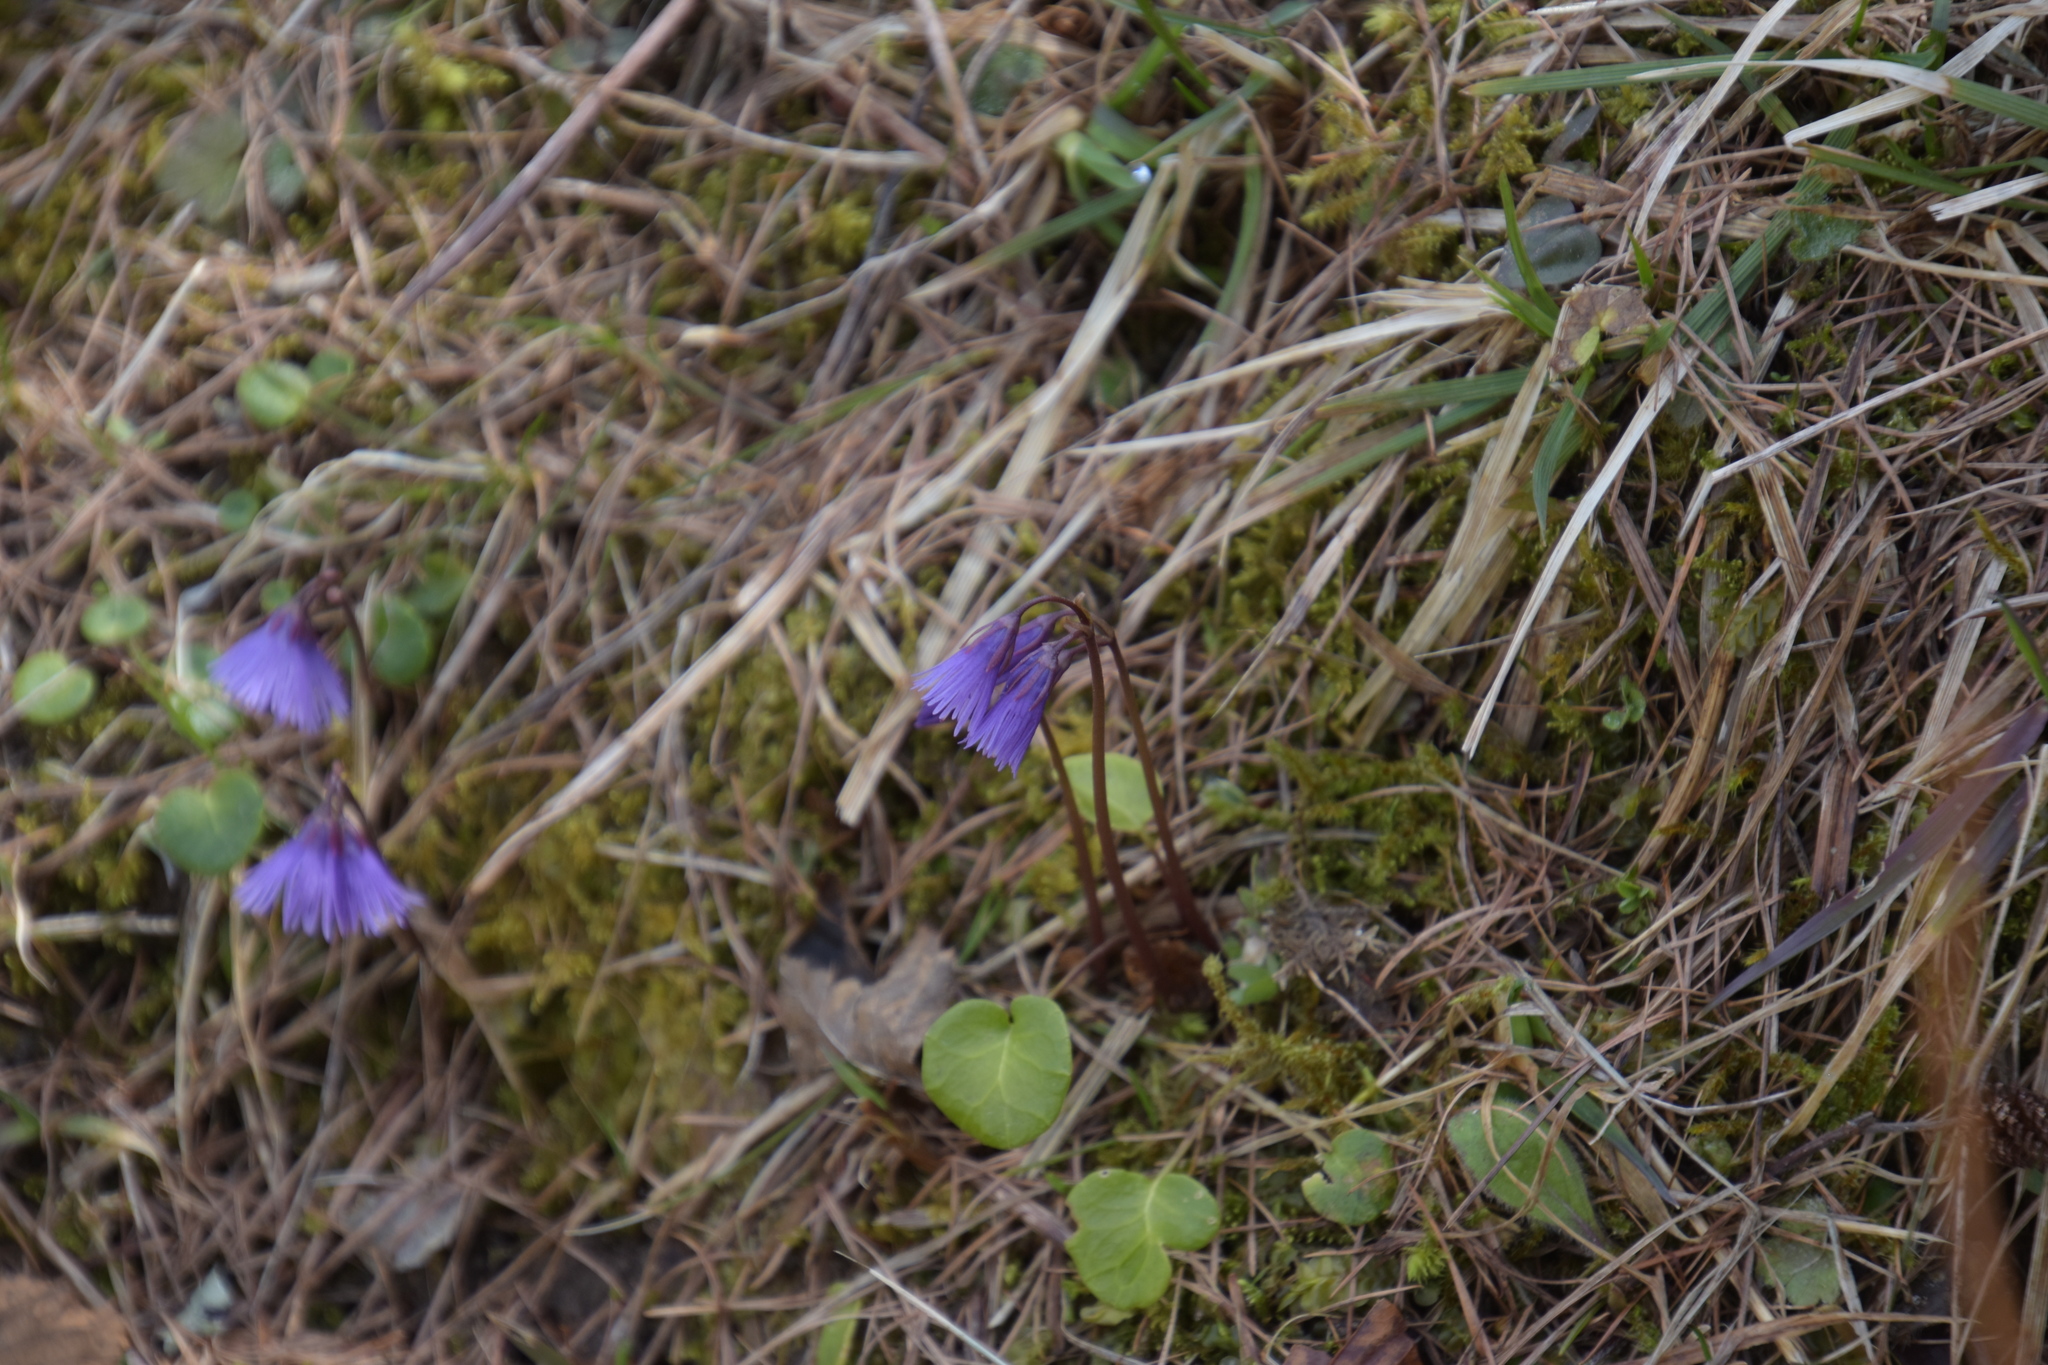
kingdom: Plantae
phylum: Tracheophyta
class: Magnoliopsida
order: Ericales
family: Primulaceae
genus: Soldanella
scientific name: Soldanella alpina
